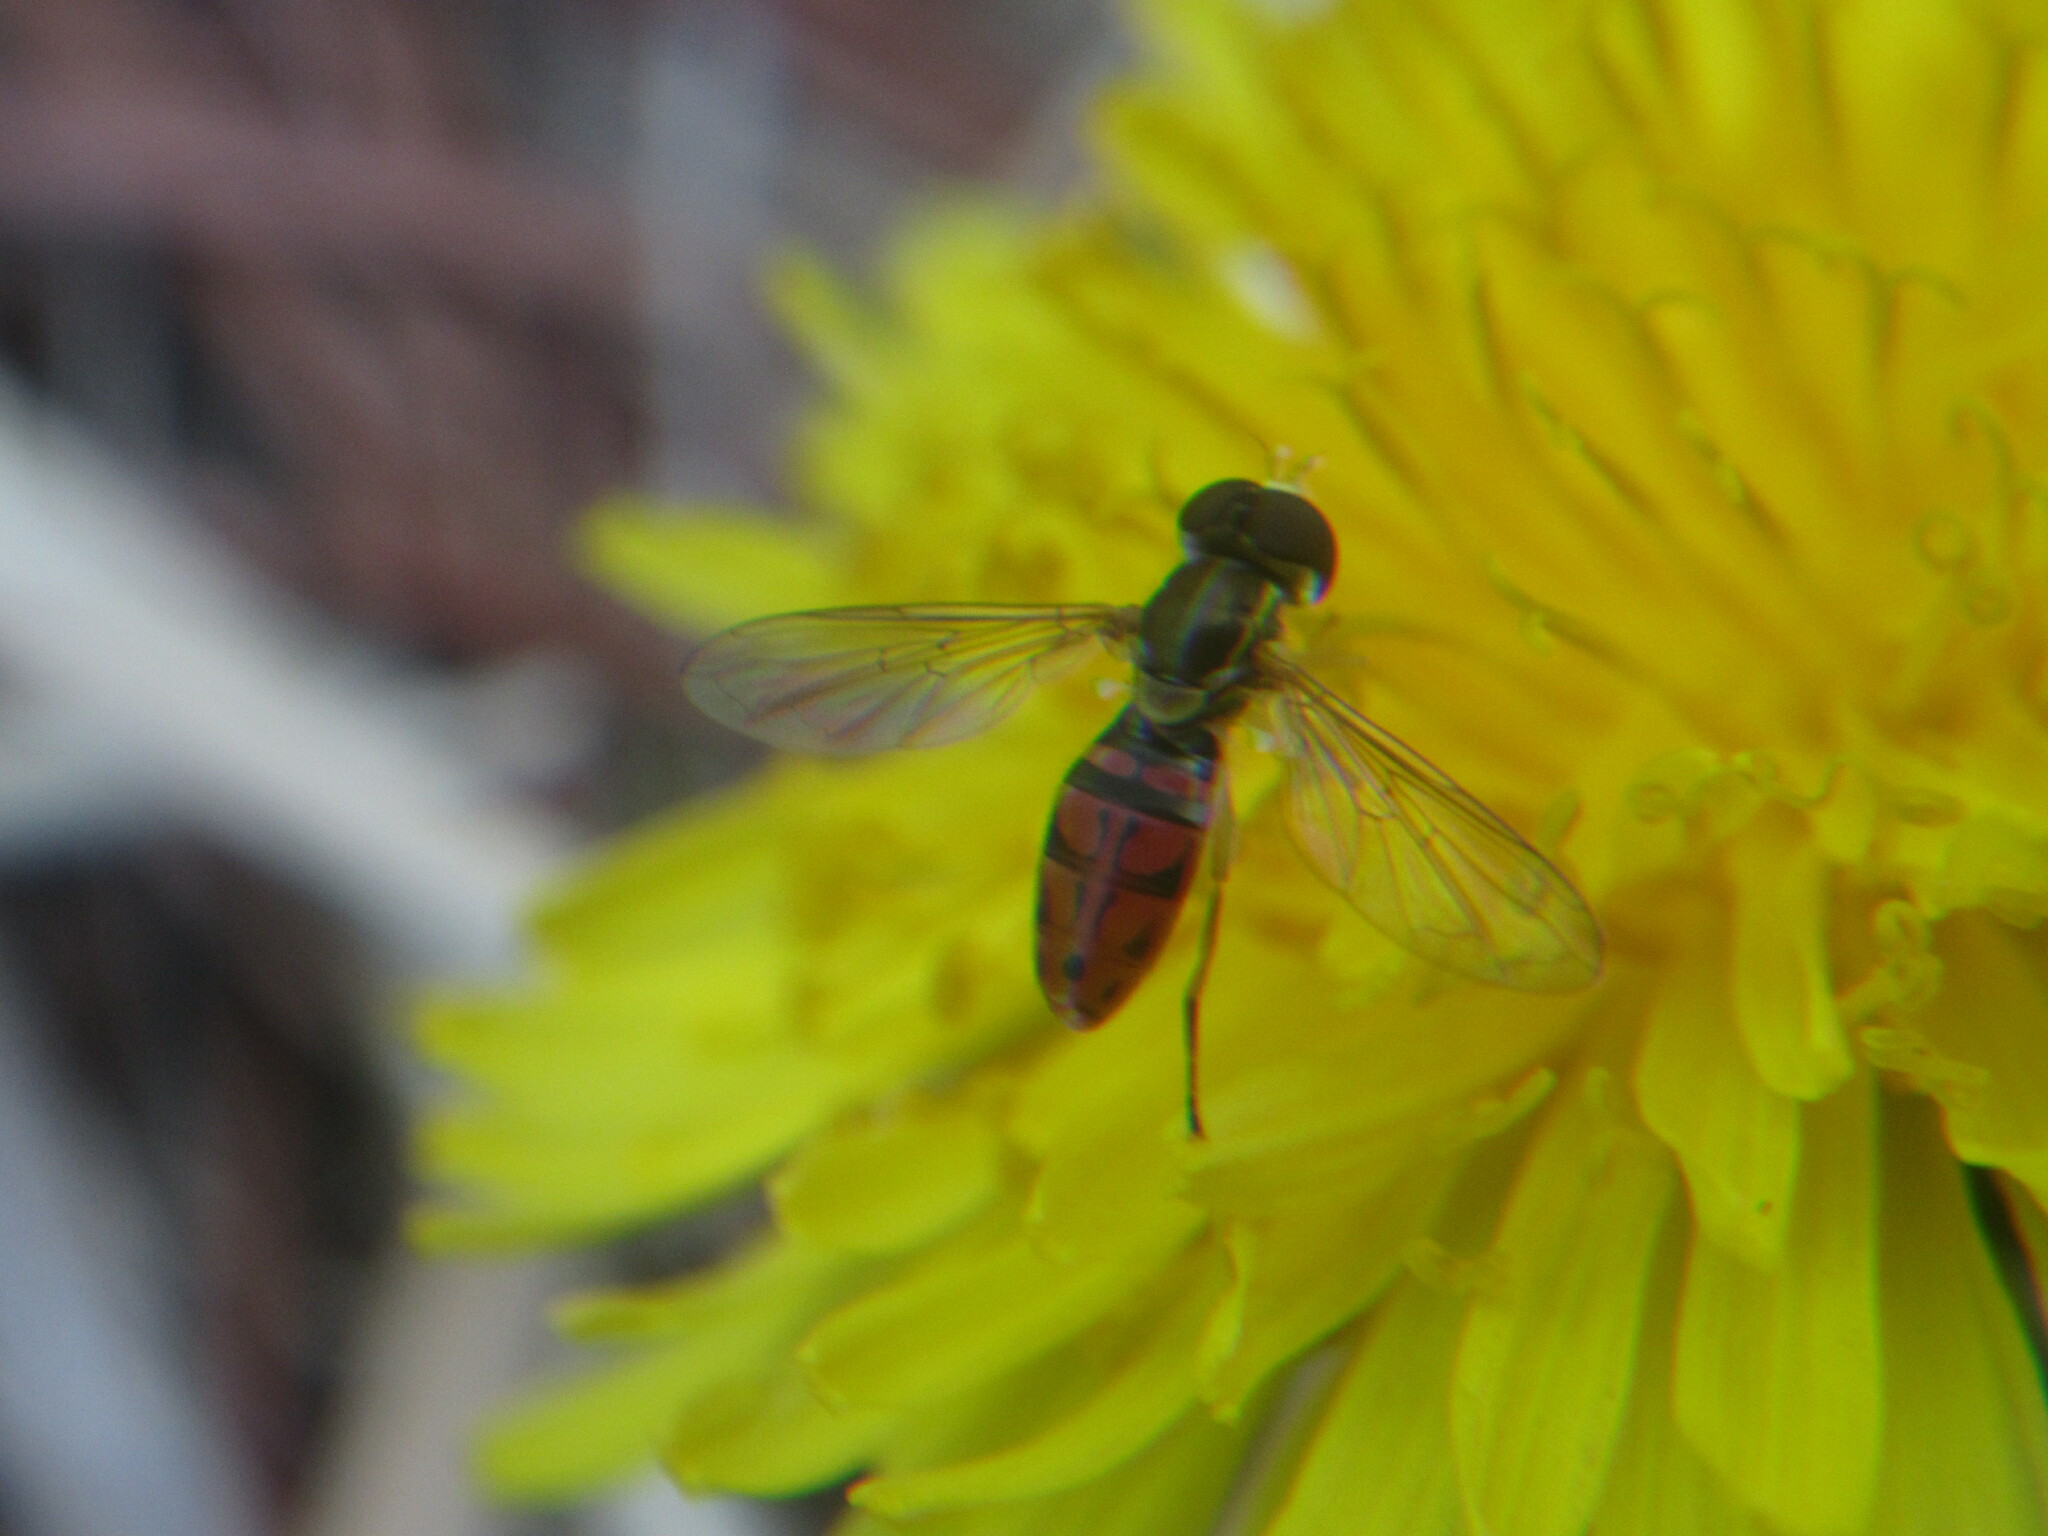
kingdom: Animalia
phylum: Arthropoda
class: Insecta
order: Diptera
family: Syrphidae
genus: Toxomerus
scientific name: Toxomerus marginatus
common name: Syrphid fly
